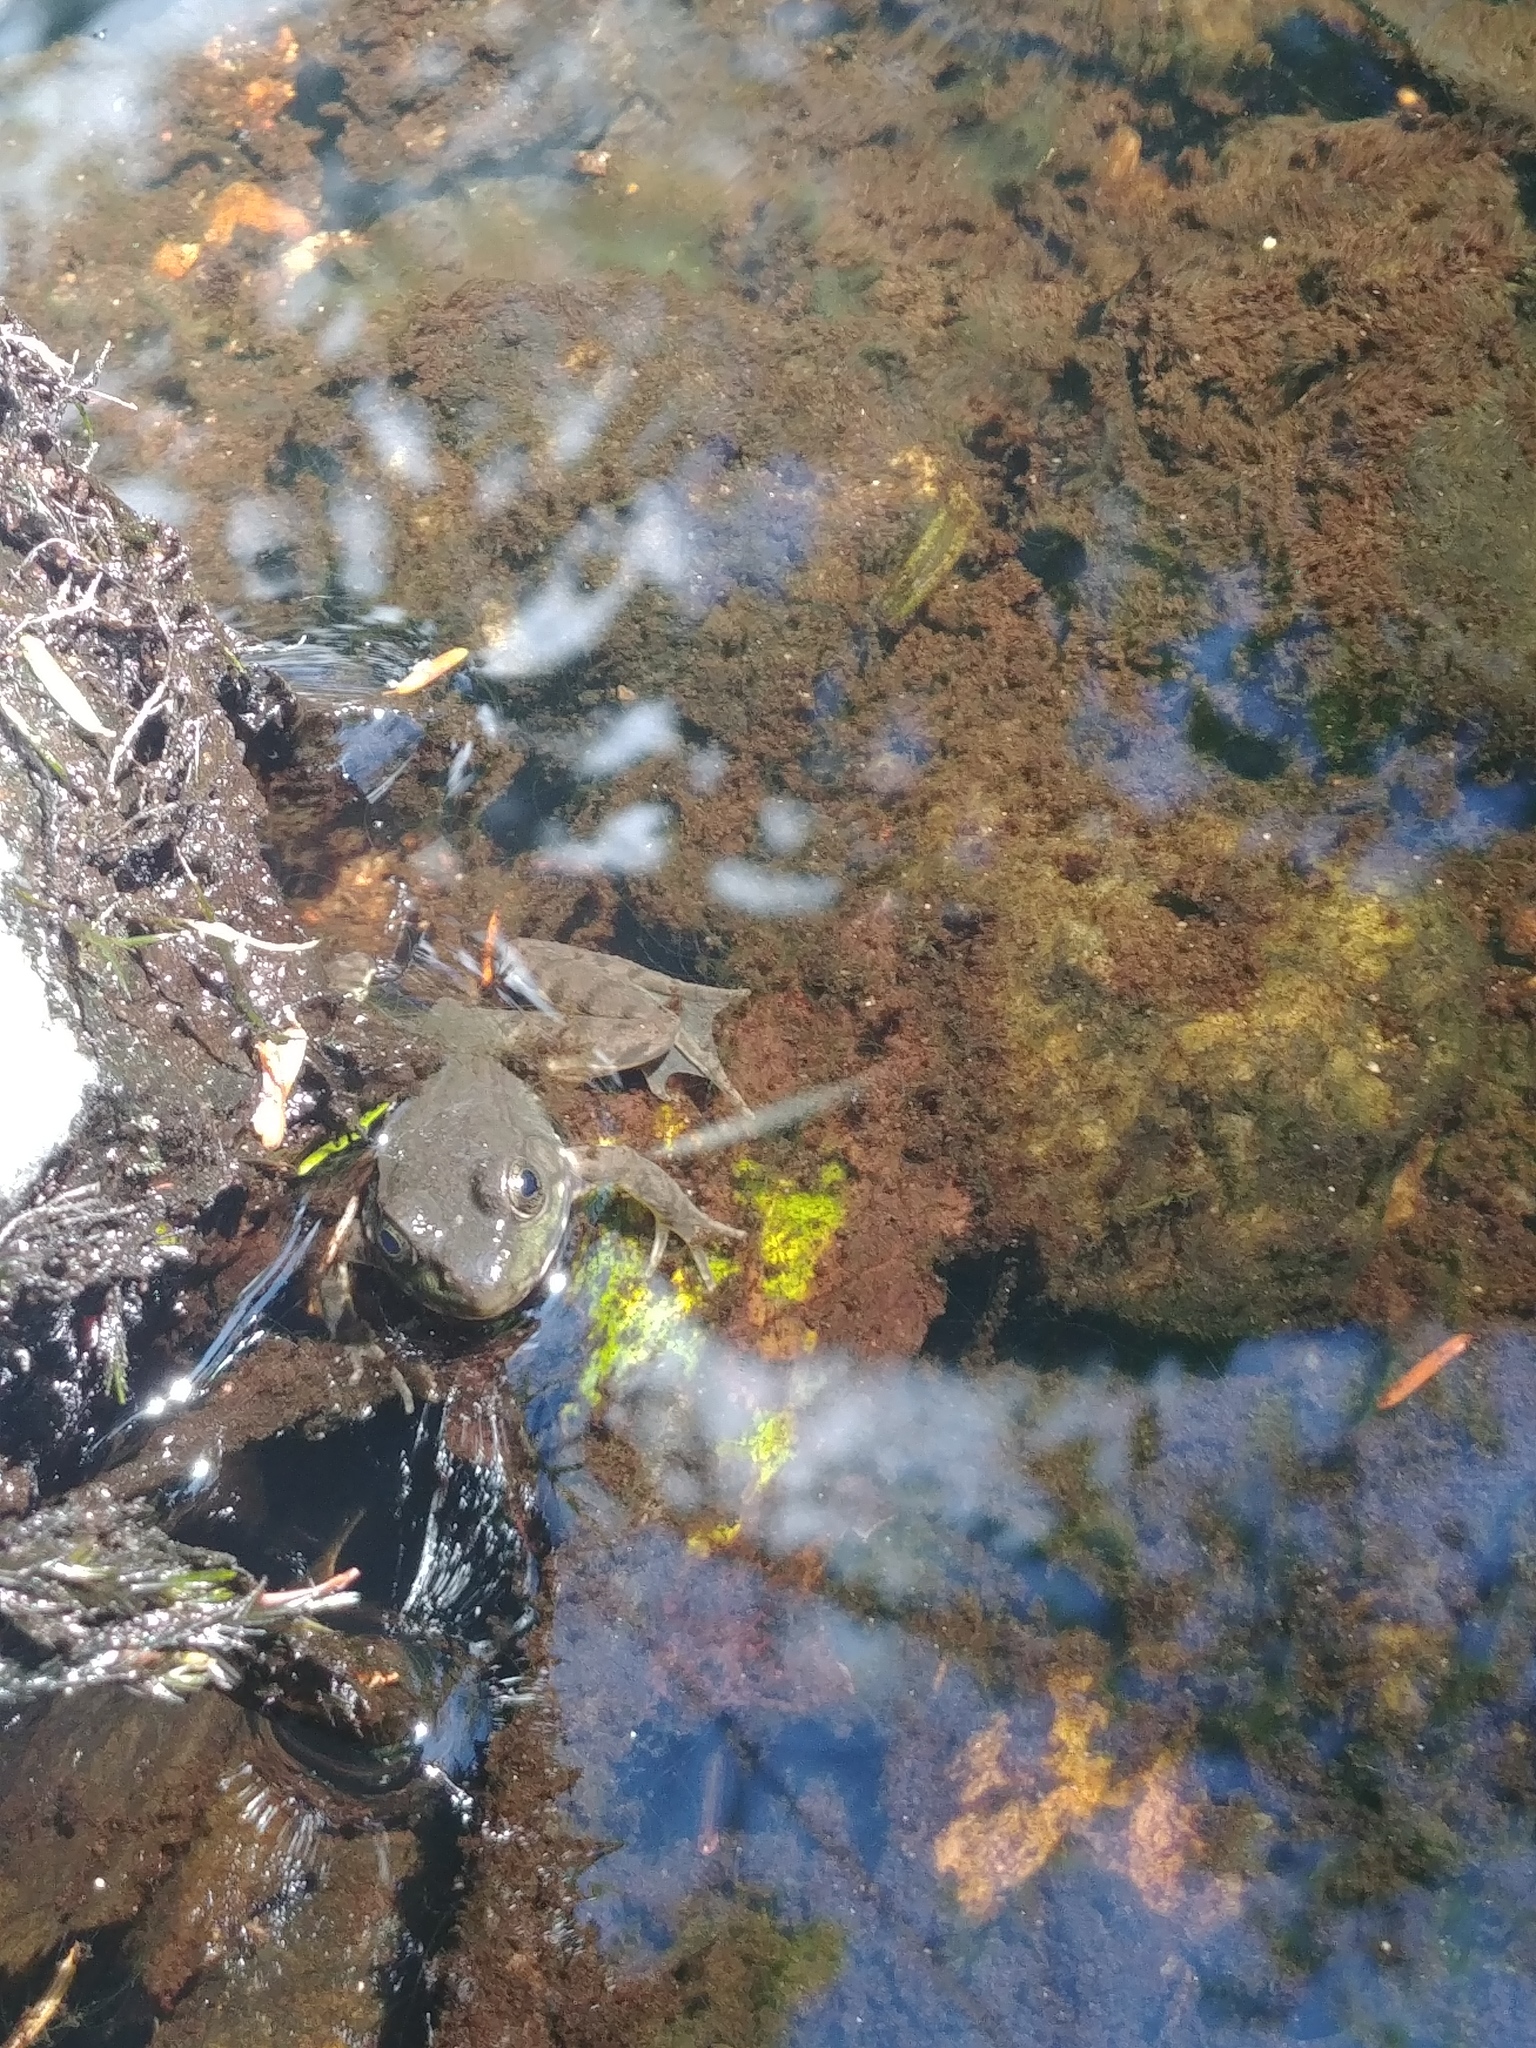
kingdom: Animalia
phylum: Chordata
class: Amphibia
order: Anura
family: Ranidae
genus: Lithobates
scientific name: Lithobates clamitans
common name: Green frog
